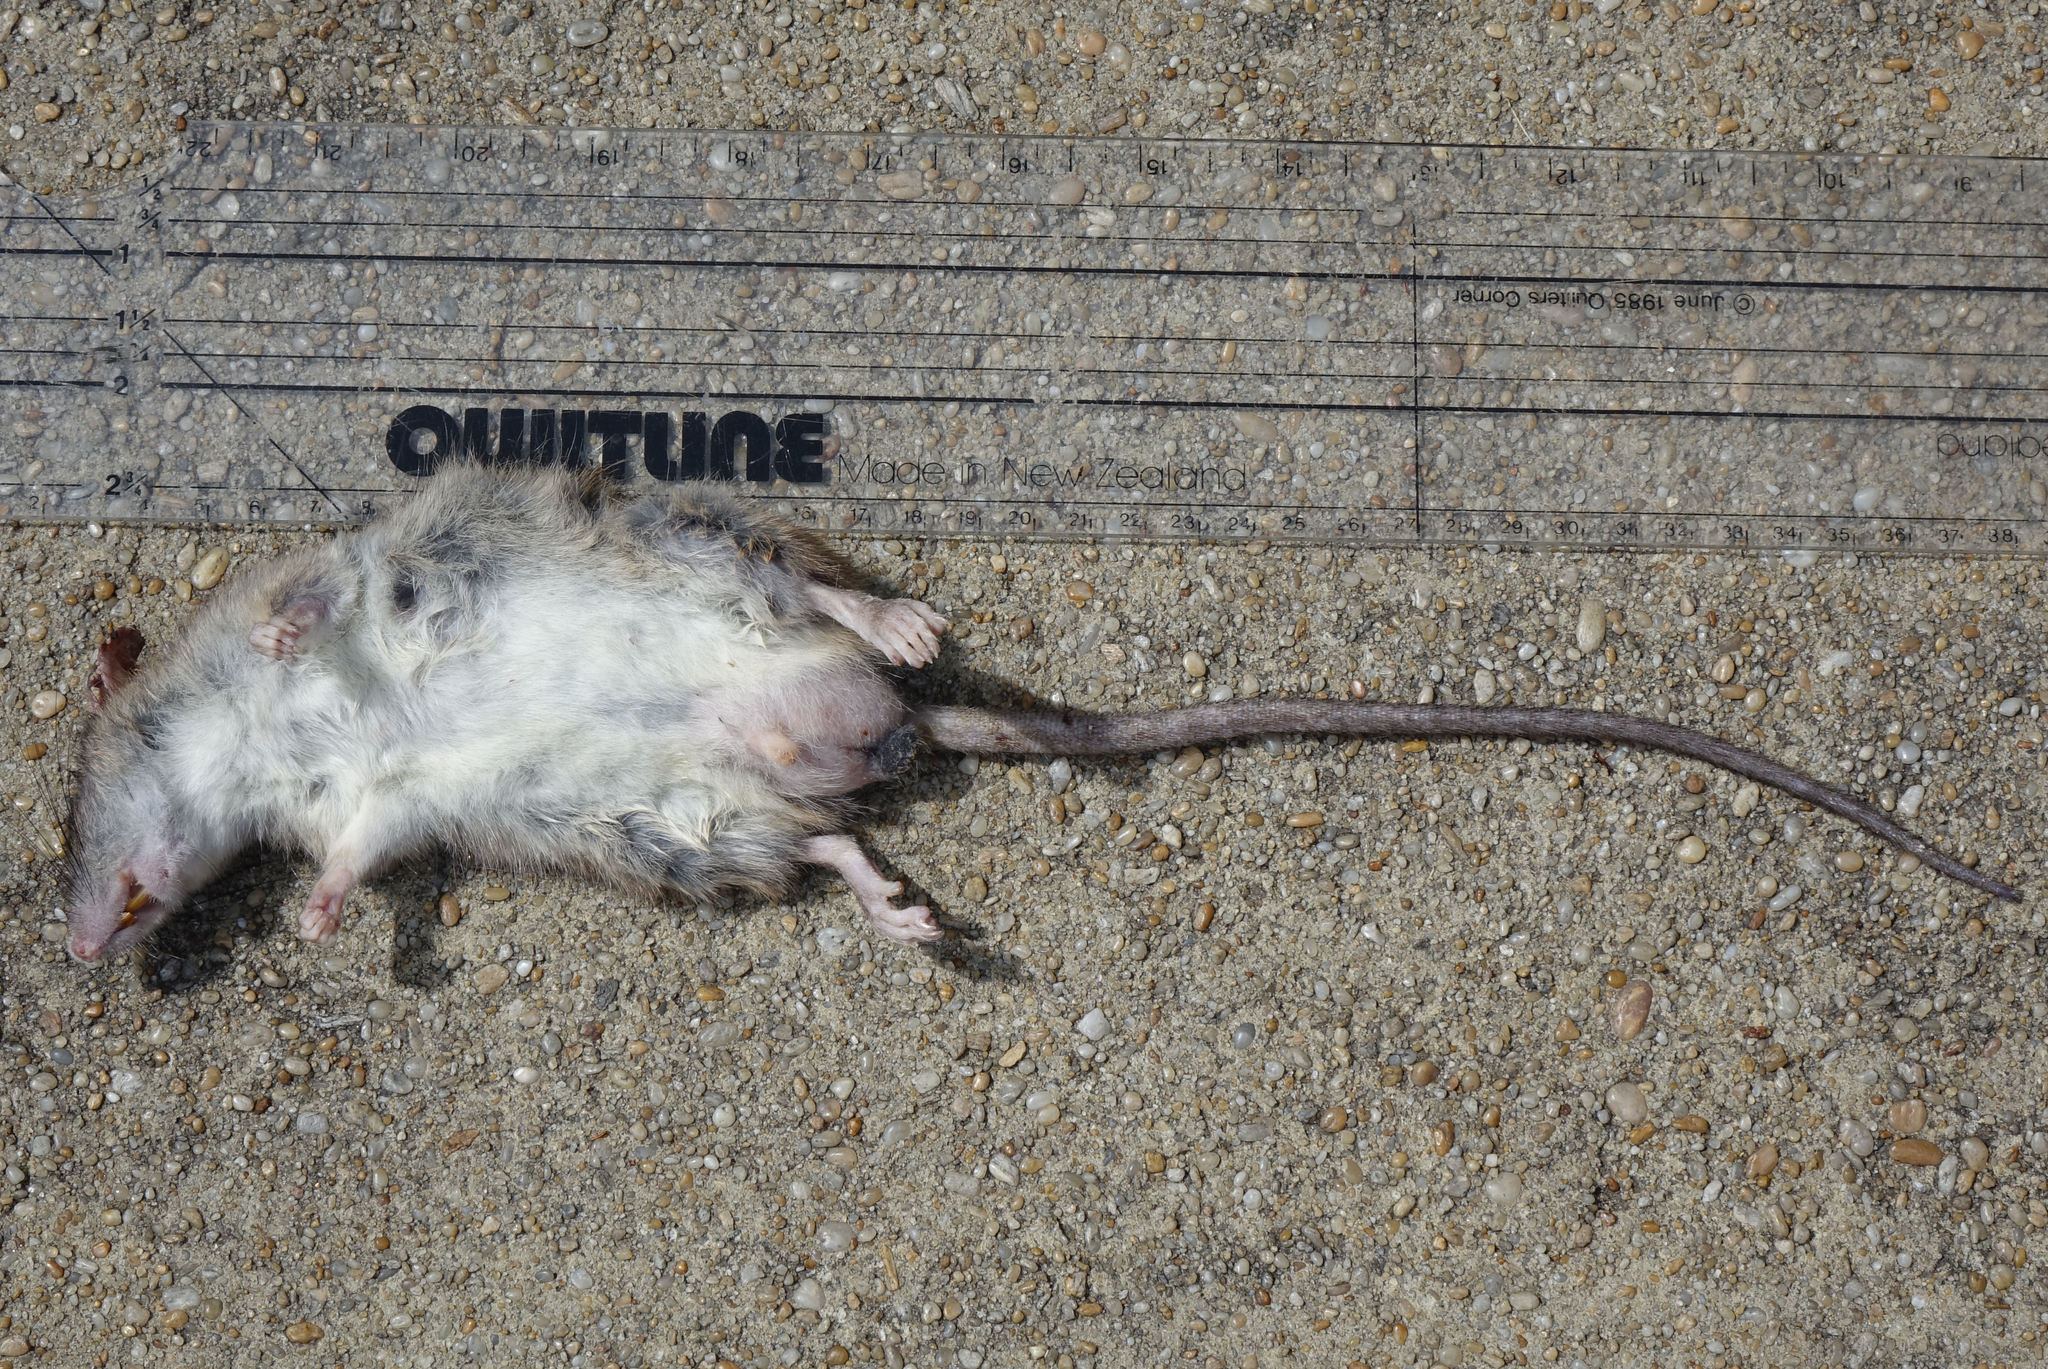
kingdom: Animalia
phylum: Chordata
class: Mammalia
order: Rodentia
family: Muridae
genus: Rattus
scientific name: Rattus rattus
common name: Black rat
